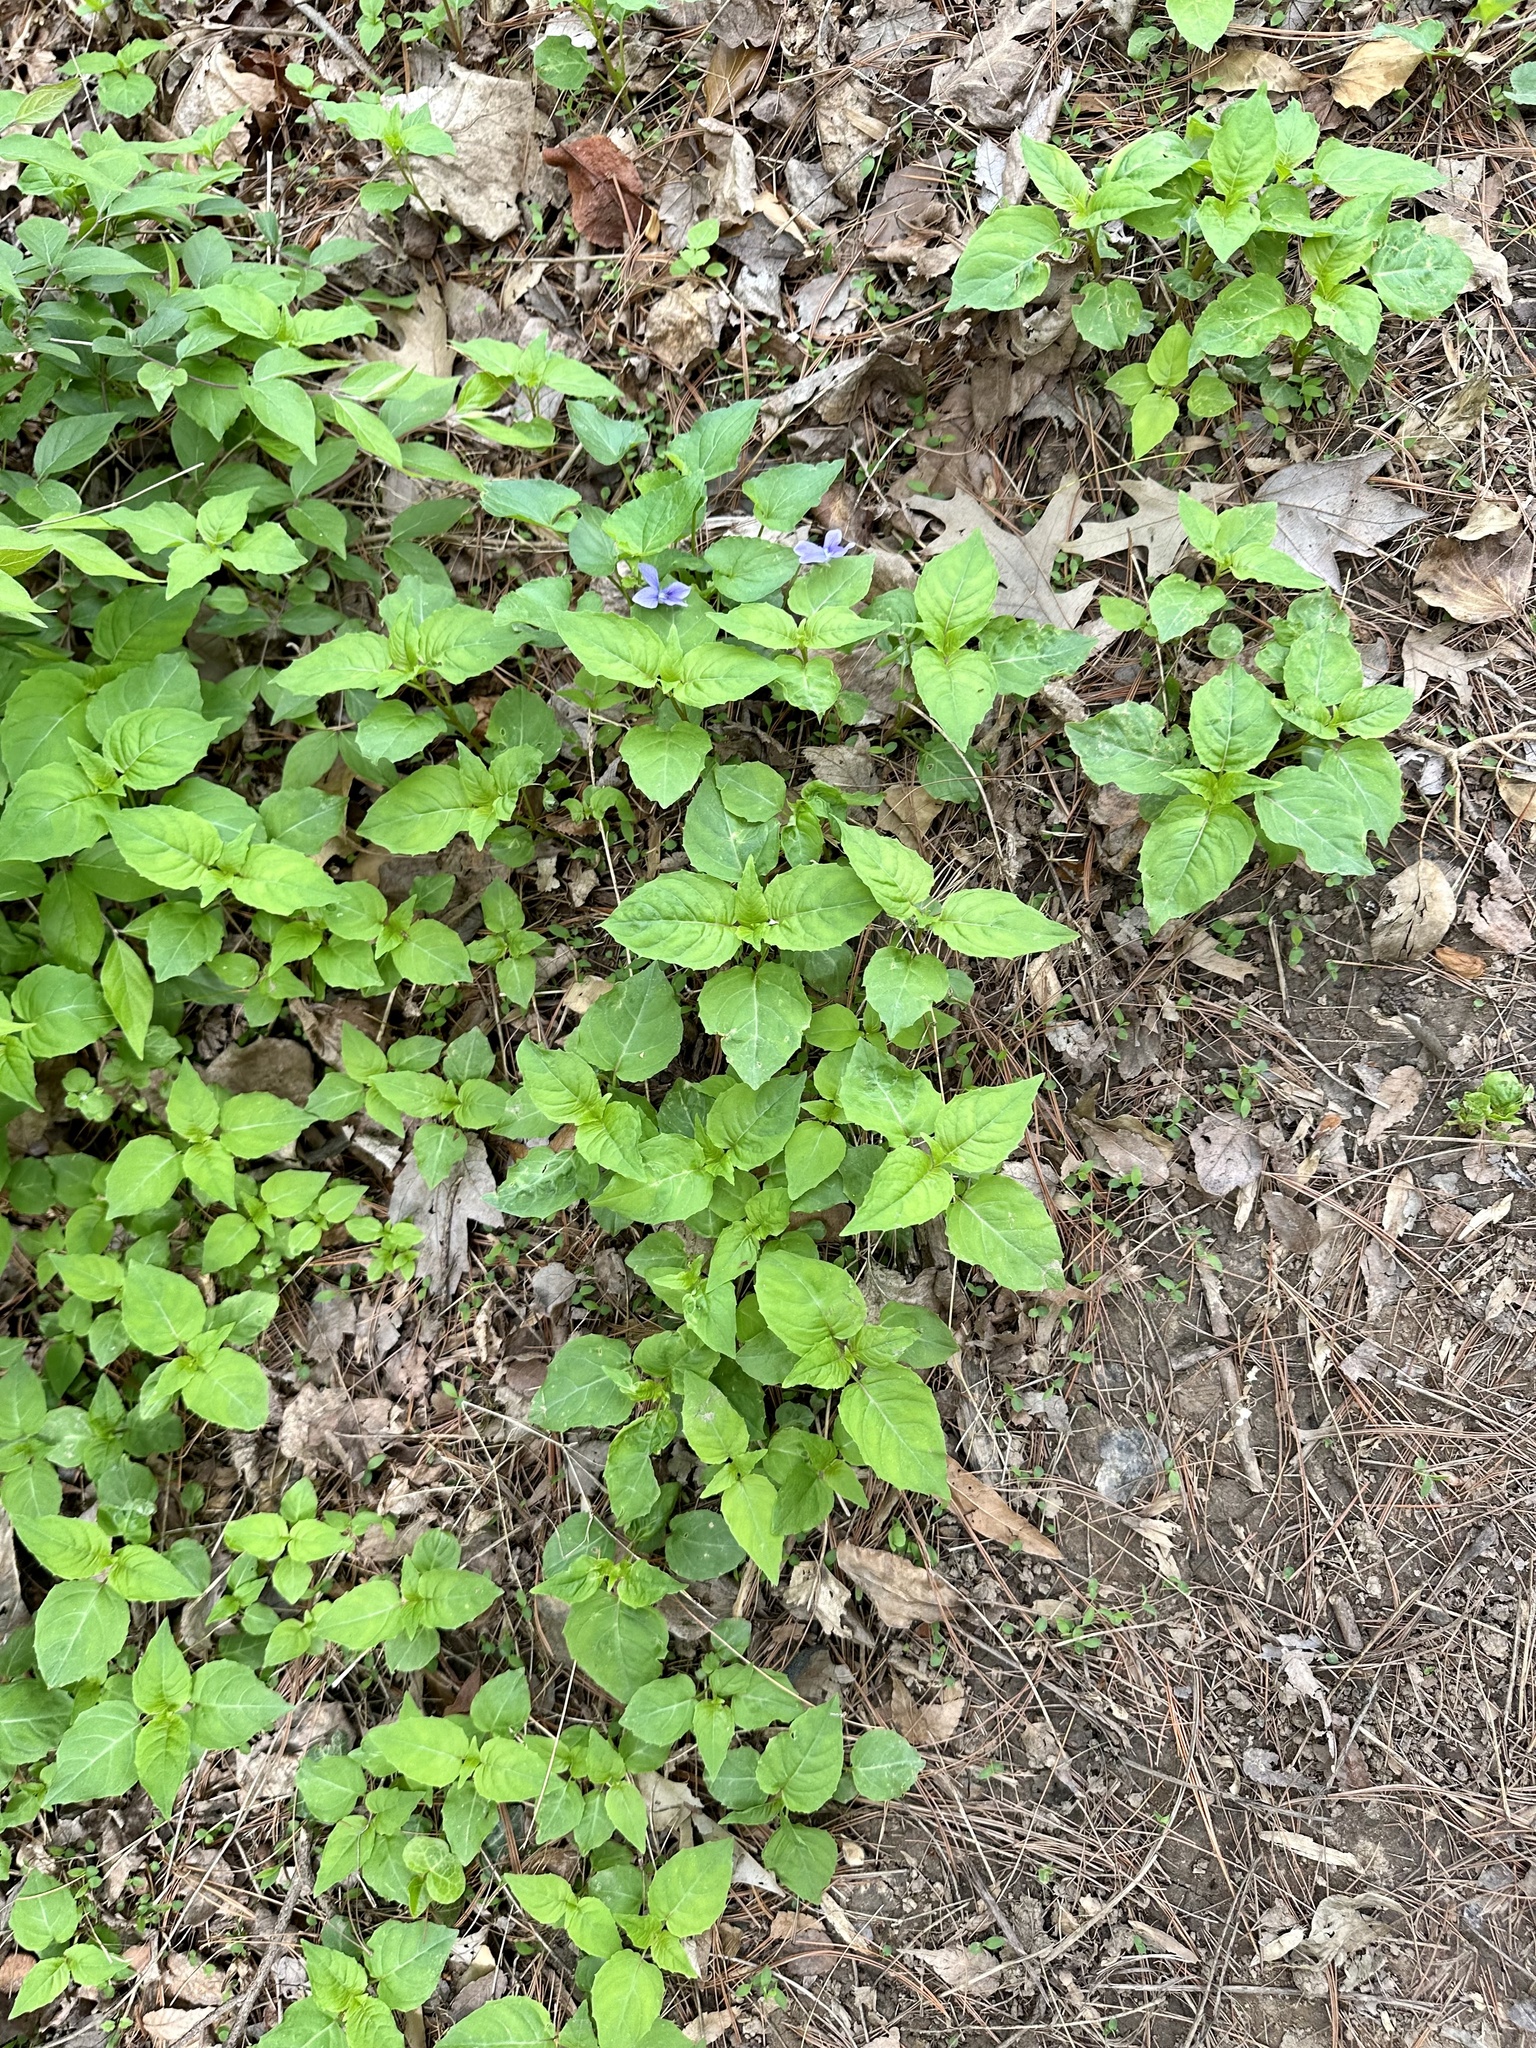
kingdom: Plantae
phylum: Tracheophyta
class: Magnoliopsida
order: Myrtales
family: Onagraceae
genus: Circaea
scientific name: Circaea canadensis
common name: Broad-leaved enchanter's nightshade
